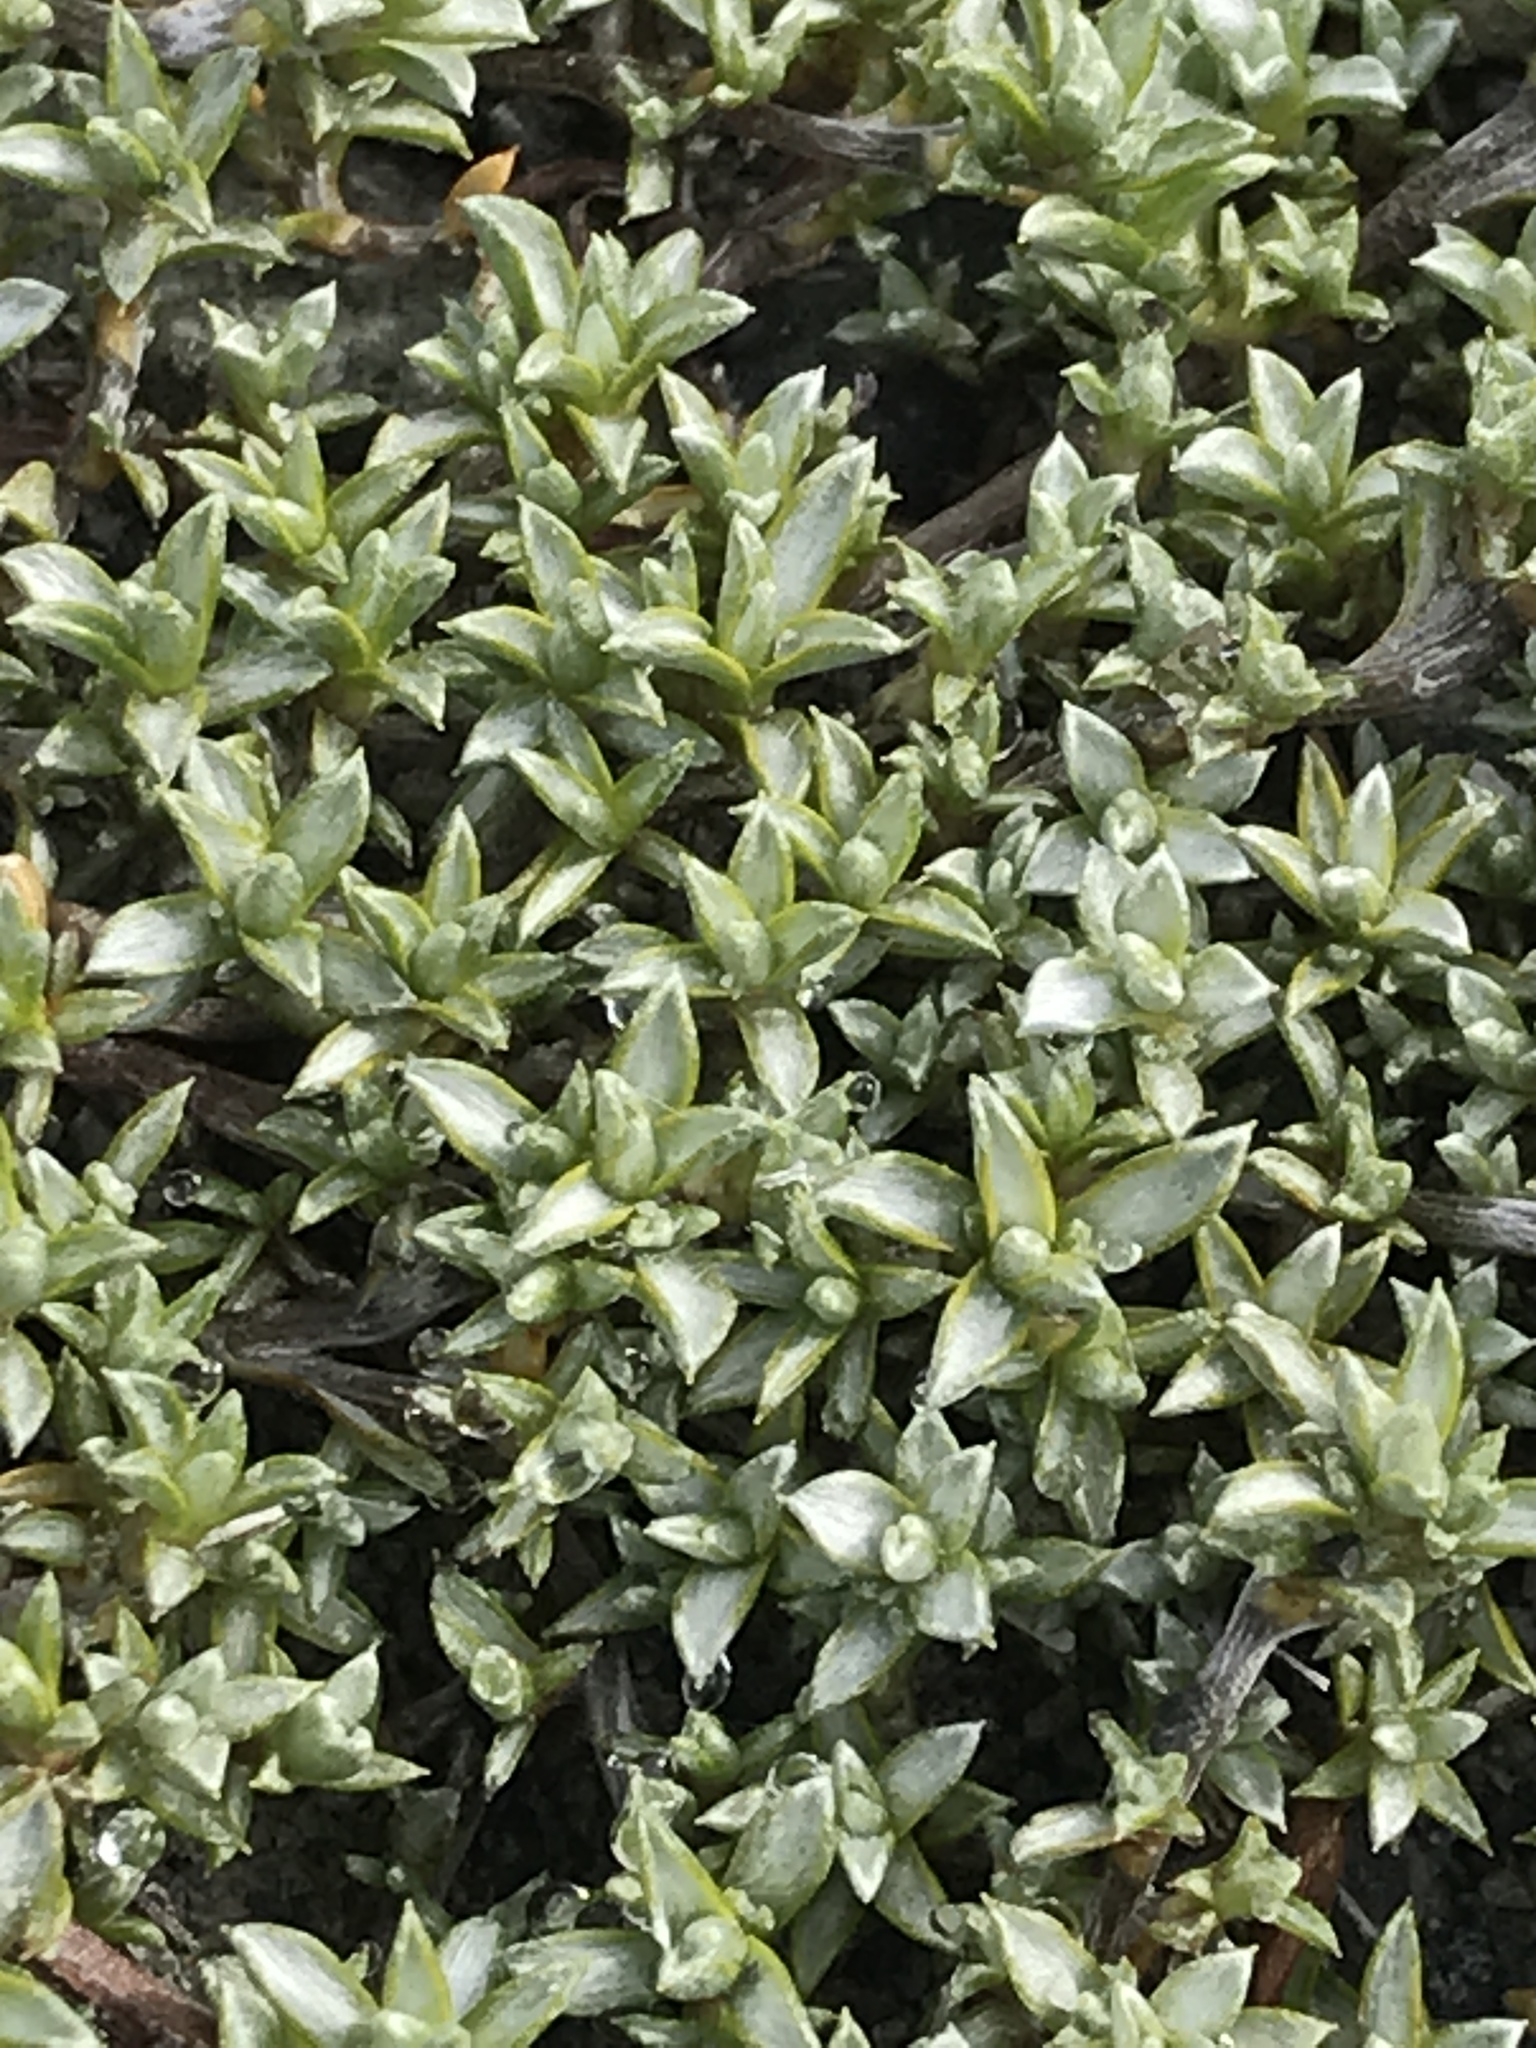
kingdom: Plantae
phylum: Tracheophyta
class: Magnoliopsida
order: Asterales
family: Asteraceae
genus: Raoulia
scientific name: Raoulia tenuicaulis
